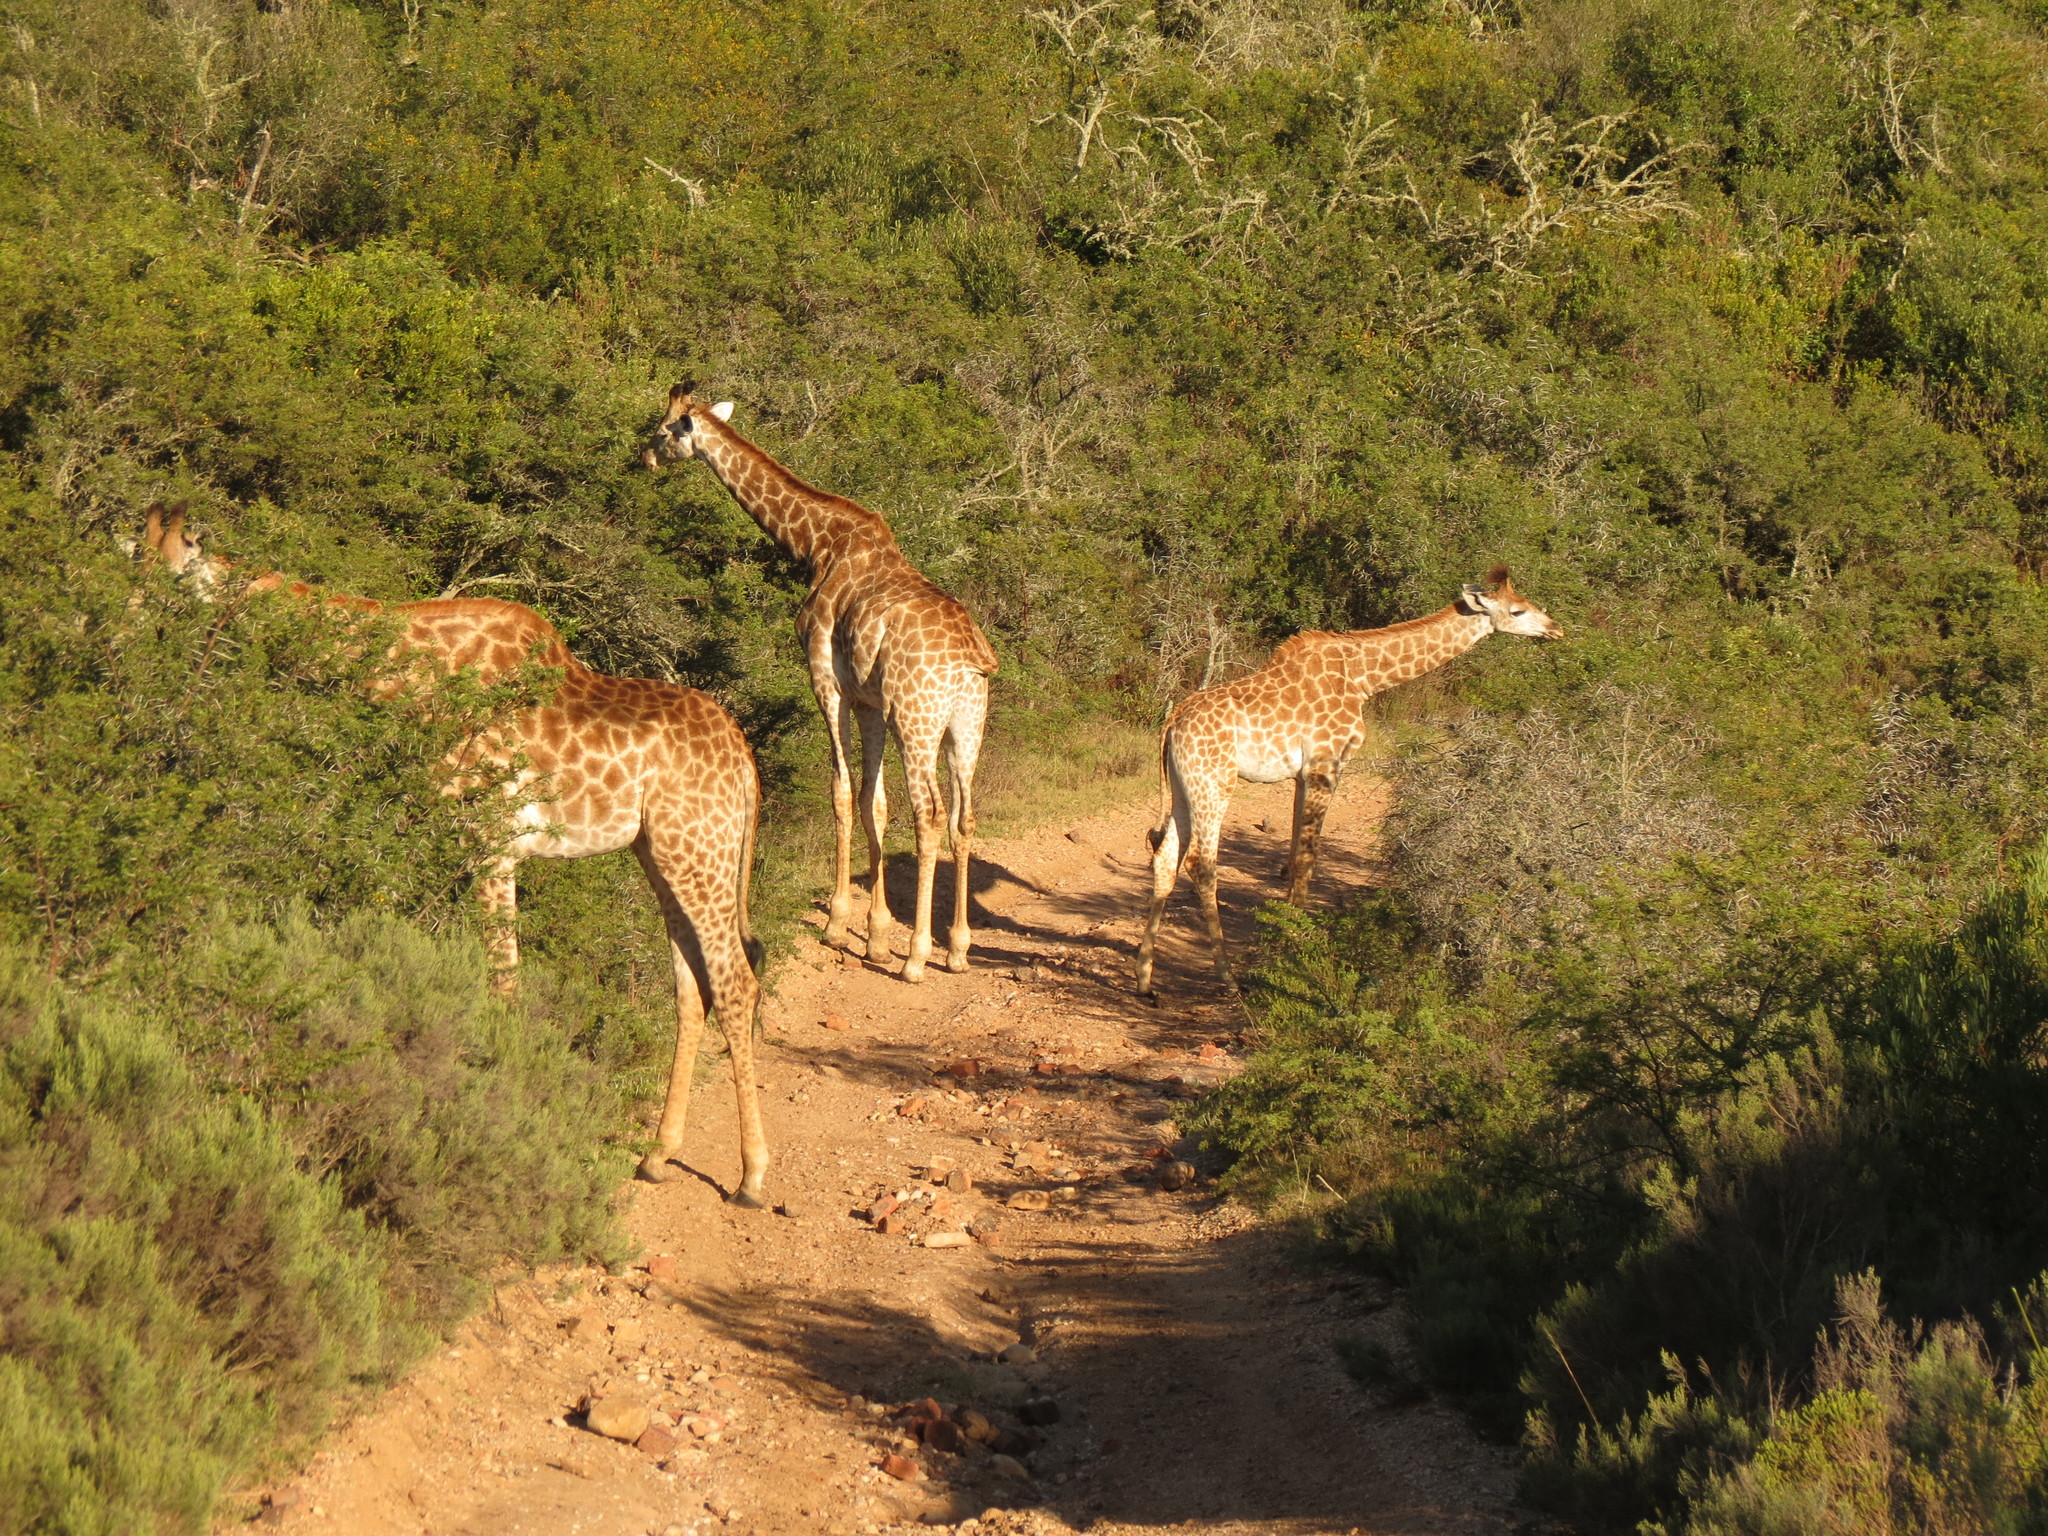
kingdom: Animalia
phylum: Chordata
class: Mammalia
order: Artiodactyla
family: Giraffidae
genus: Giraffa
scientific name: Giraffa giraffa
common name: Southern giraffe
